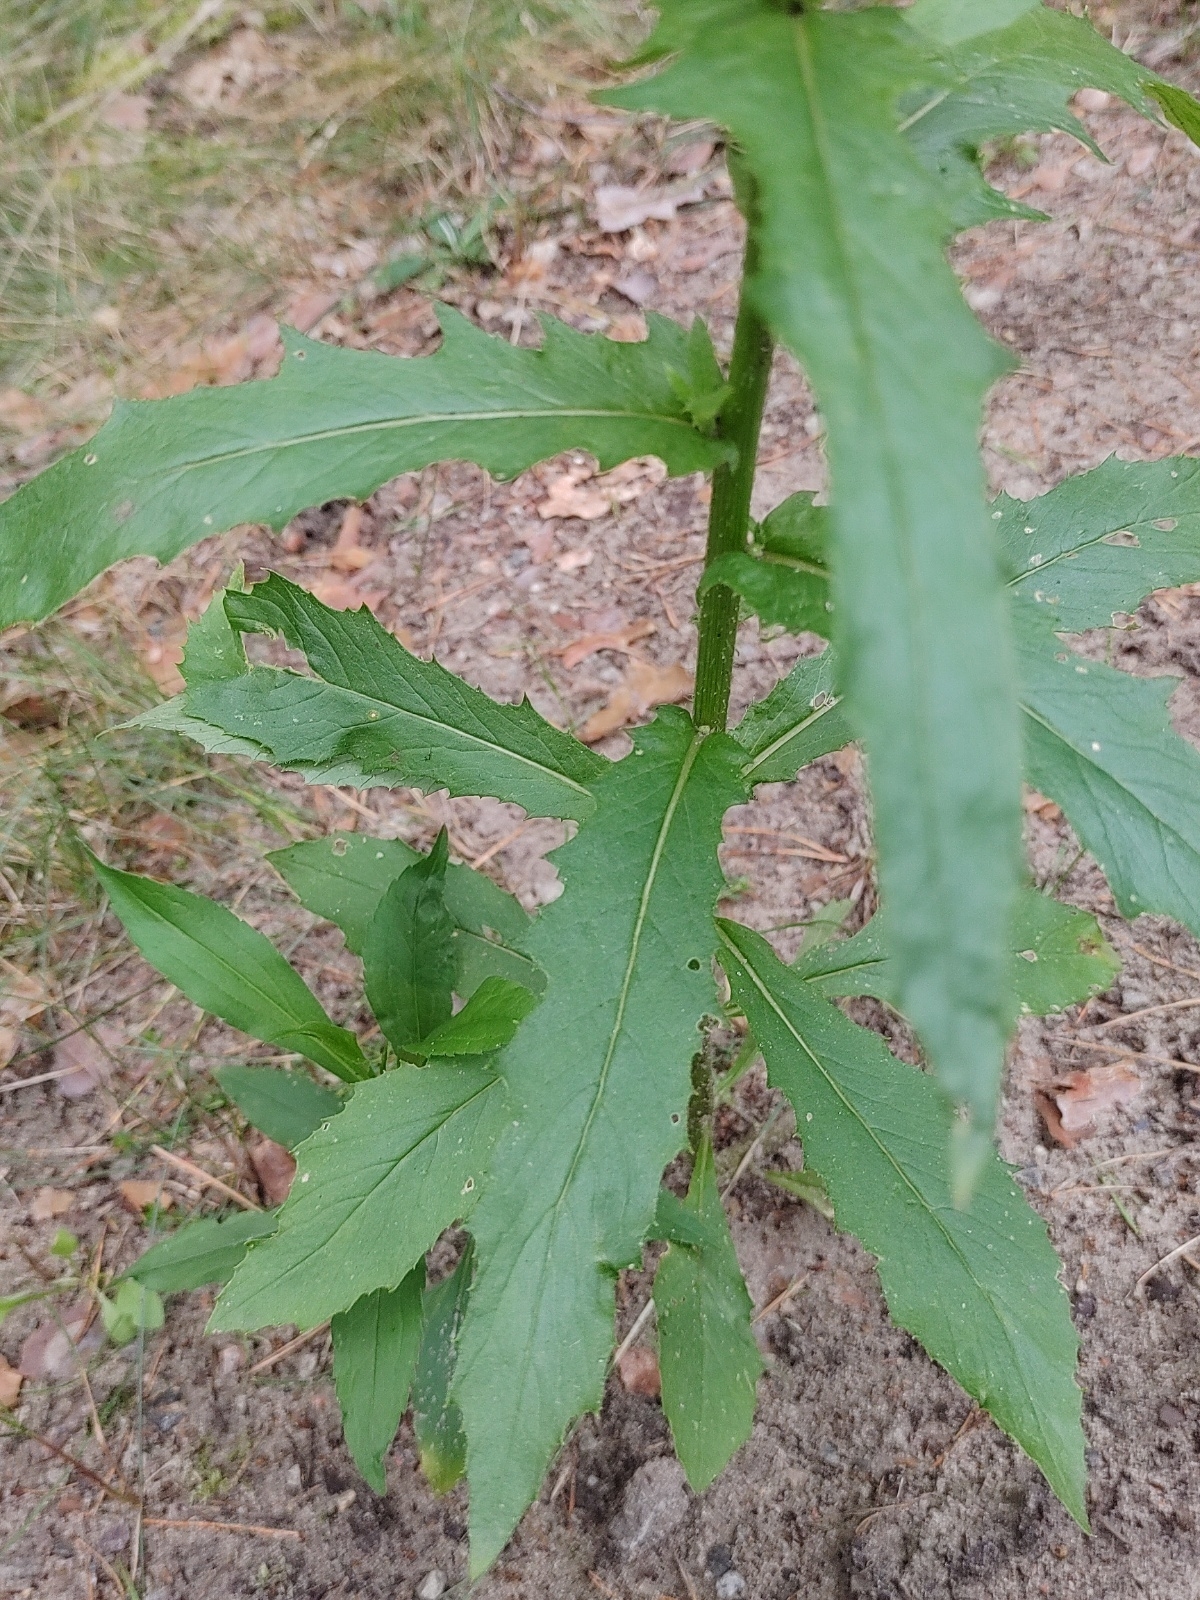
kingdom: Plantae
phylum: Tracheophyta
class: Magnoliopsida
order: Asterales
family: Asteraceae
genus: Erechtites
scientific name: Erechtites hieraciifolius
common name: American burnweed
